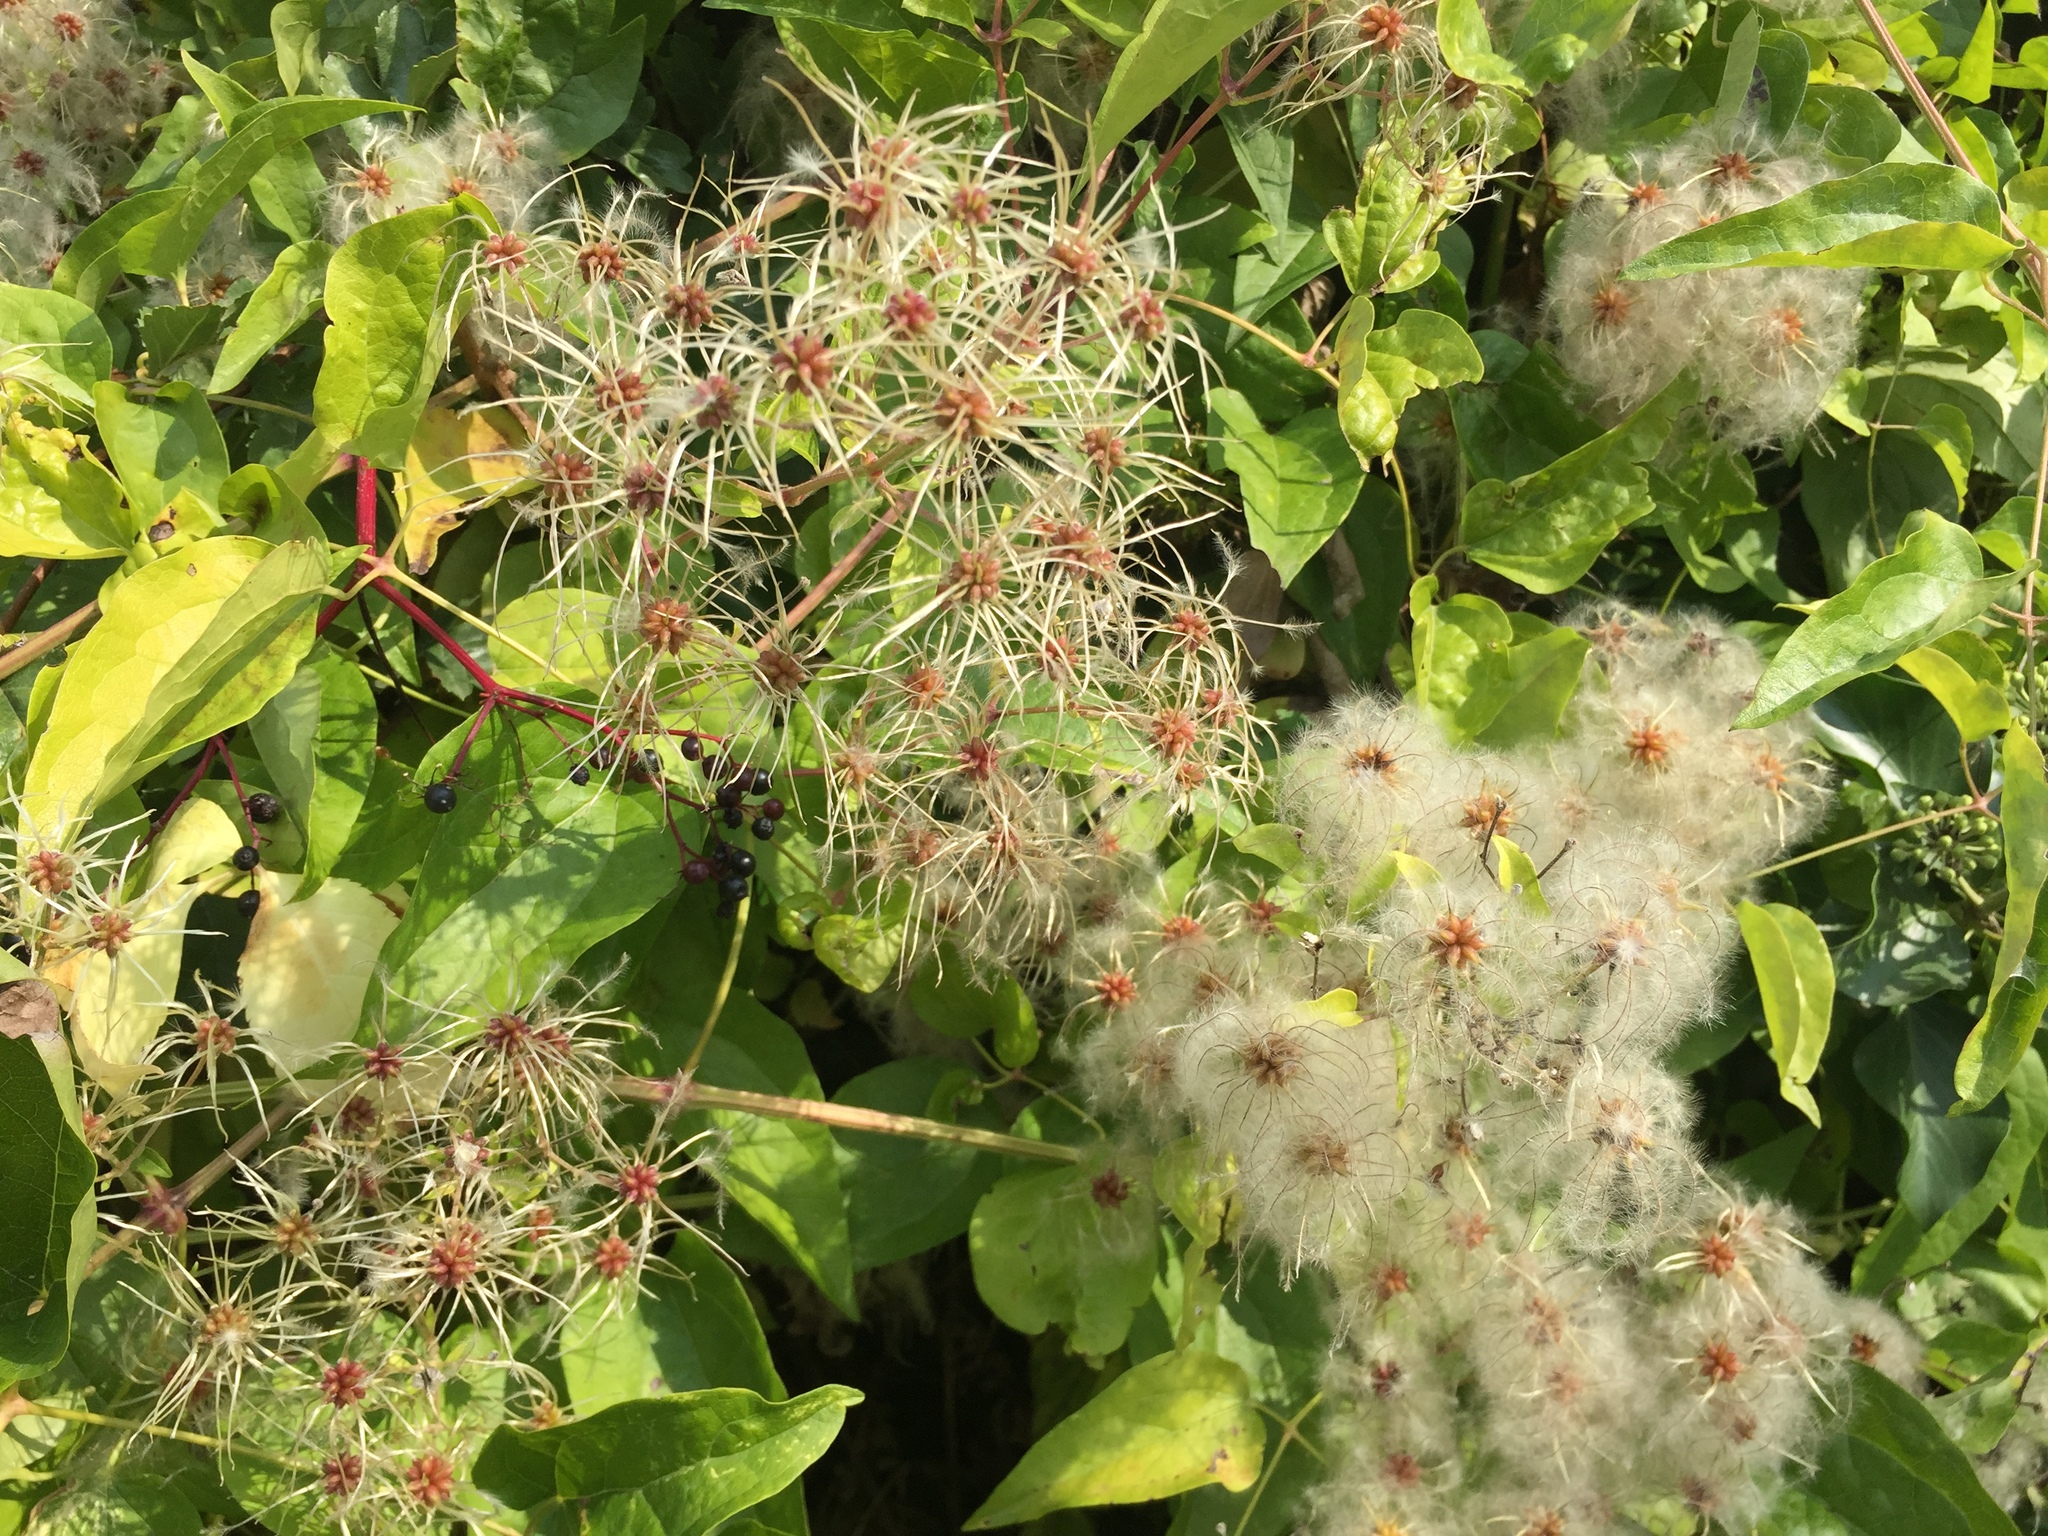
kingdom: Plantae
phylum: Tracheophyta
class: Magnoliopsida
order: Ranunculales
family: Ranunculaceae
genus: Clematis
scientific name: Clematis vitalba
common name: Evergreen clematis
